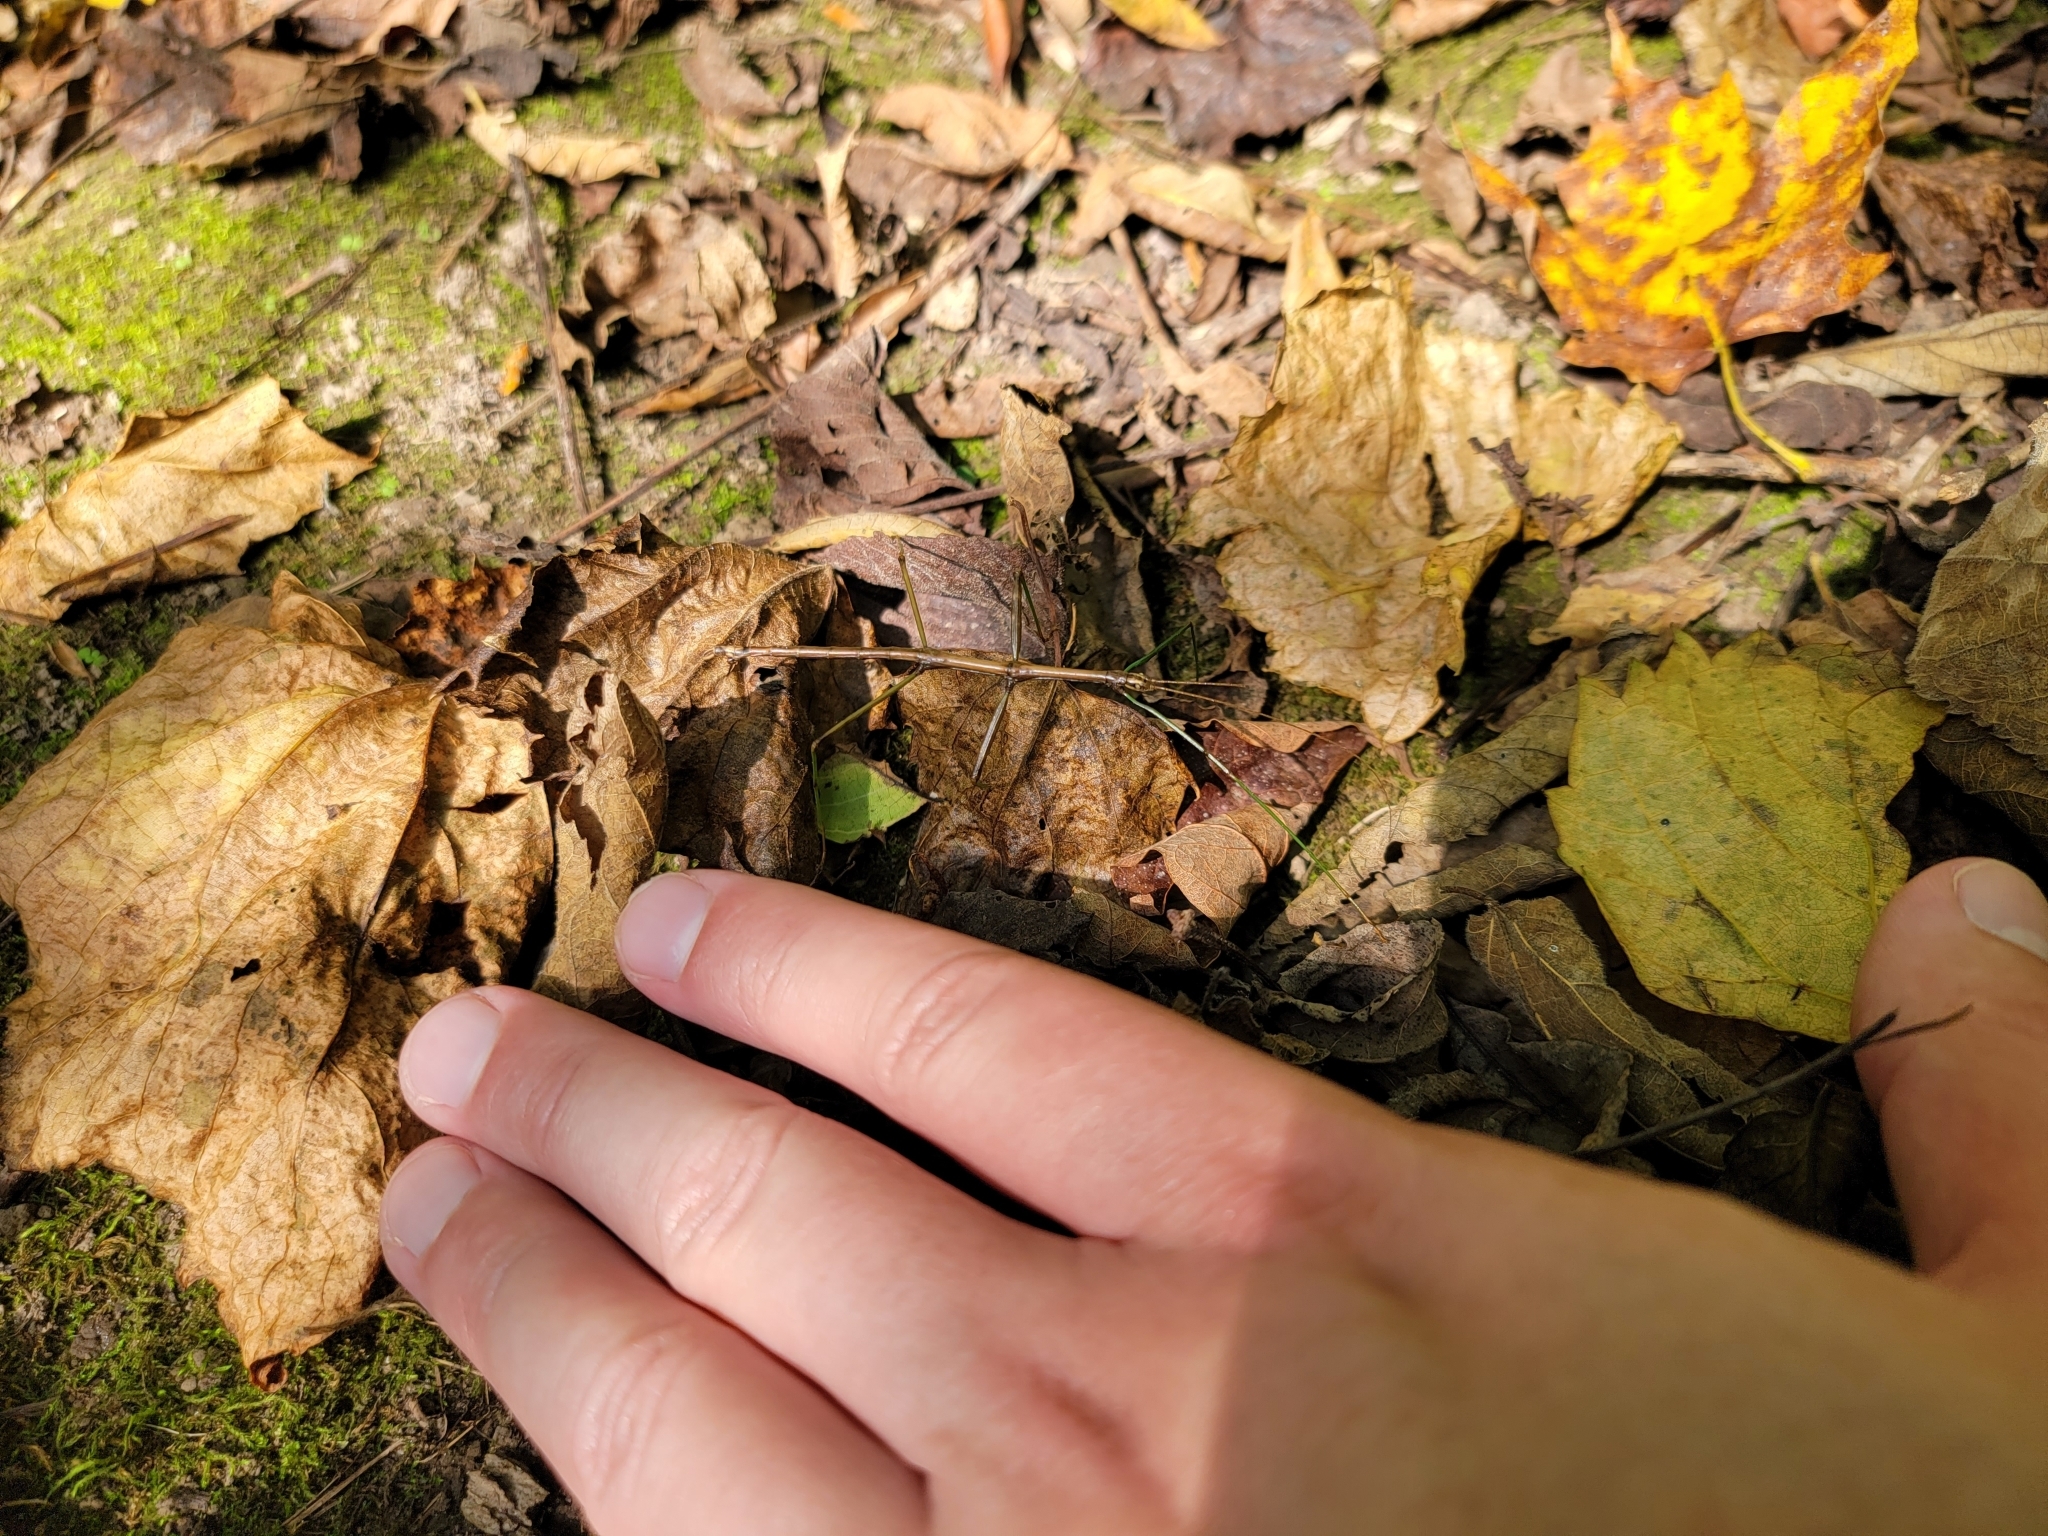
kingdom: Animalia
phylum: Arthropoda
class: Insecta
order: Phasmida
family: Diapheromeridae
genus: Diapheromera
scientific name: Diapheromera femorata
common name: Common american walkingstick
